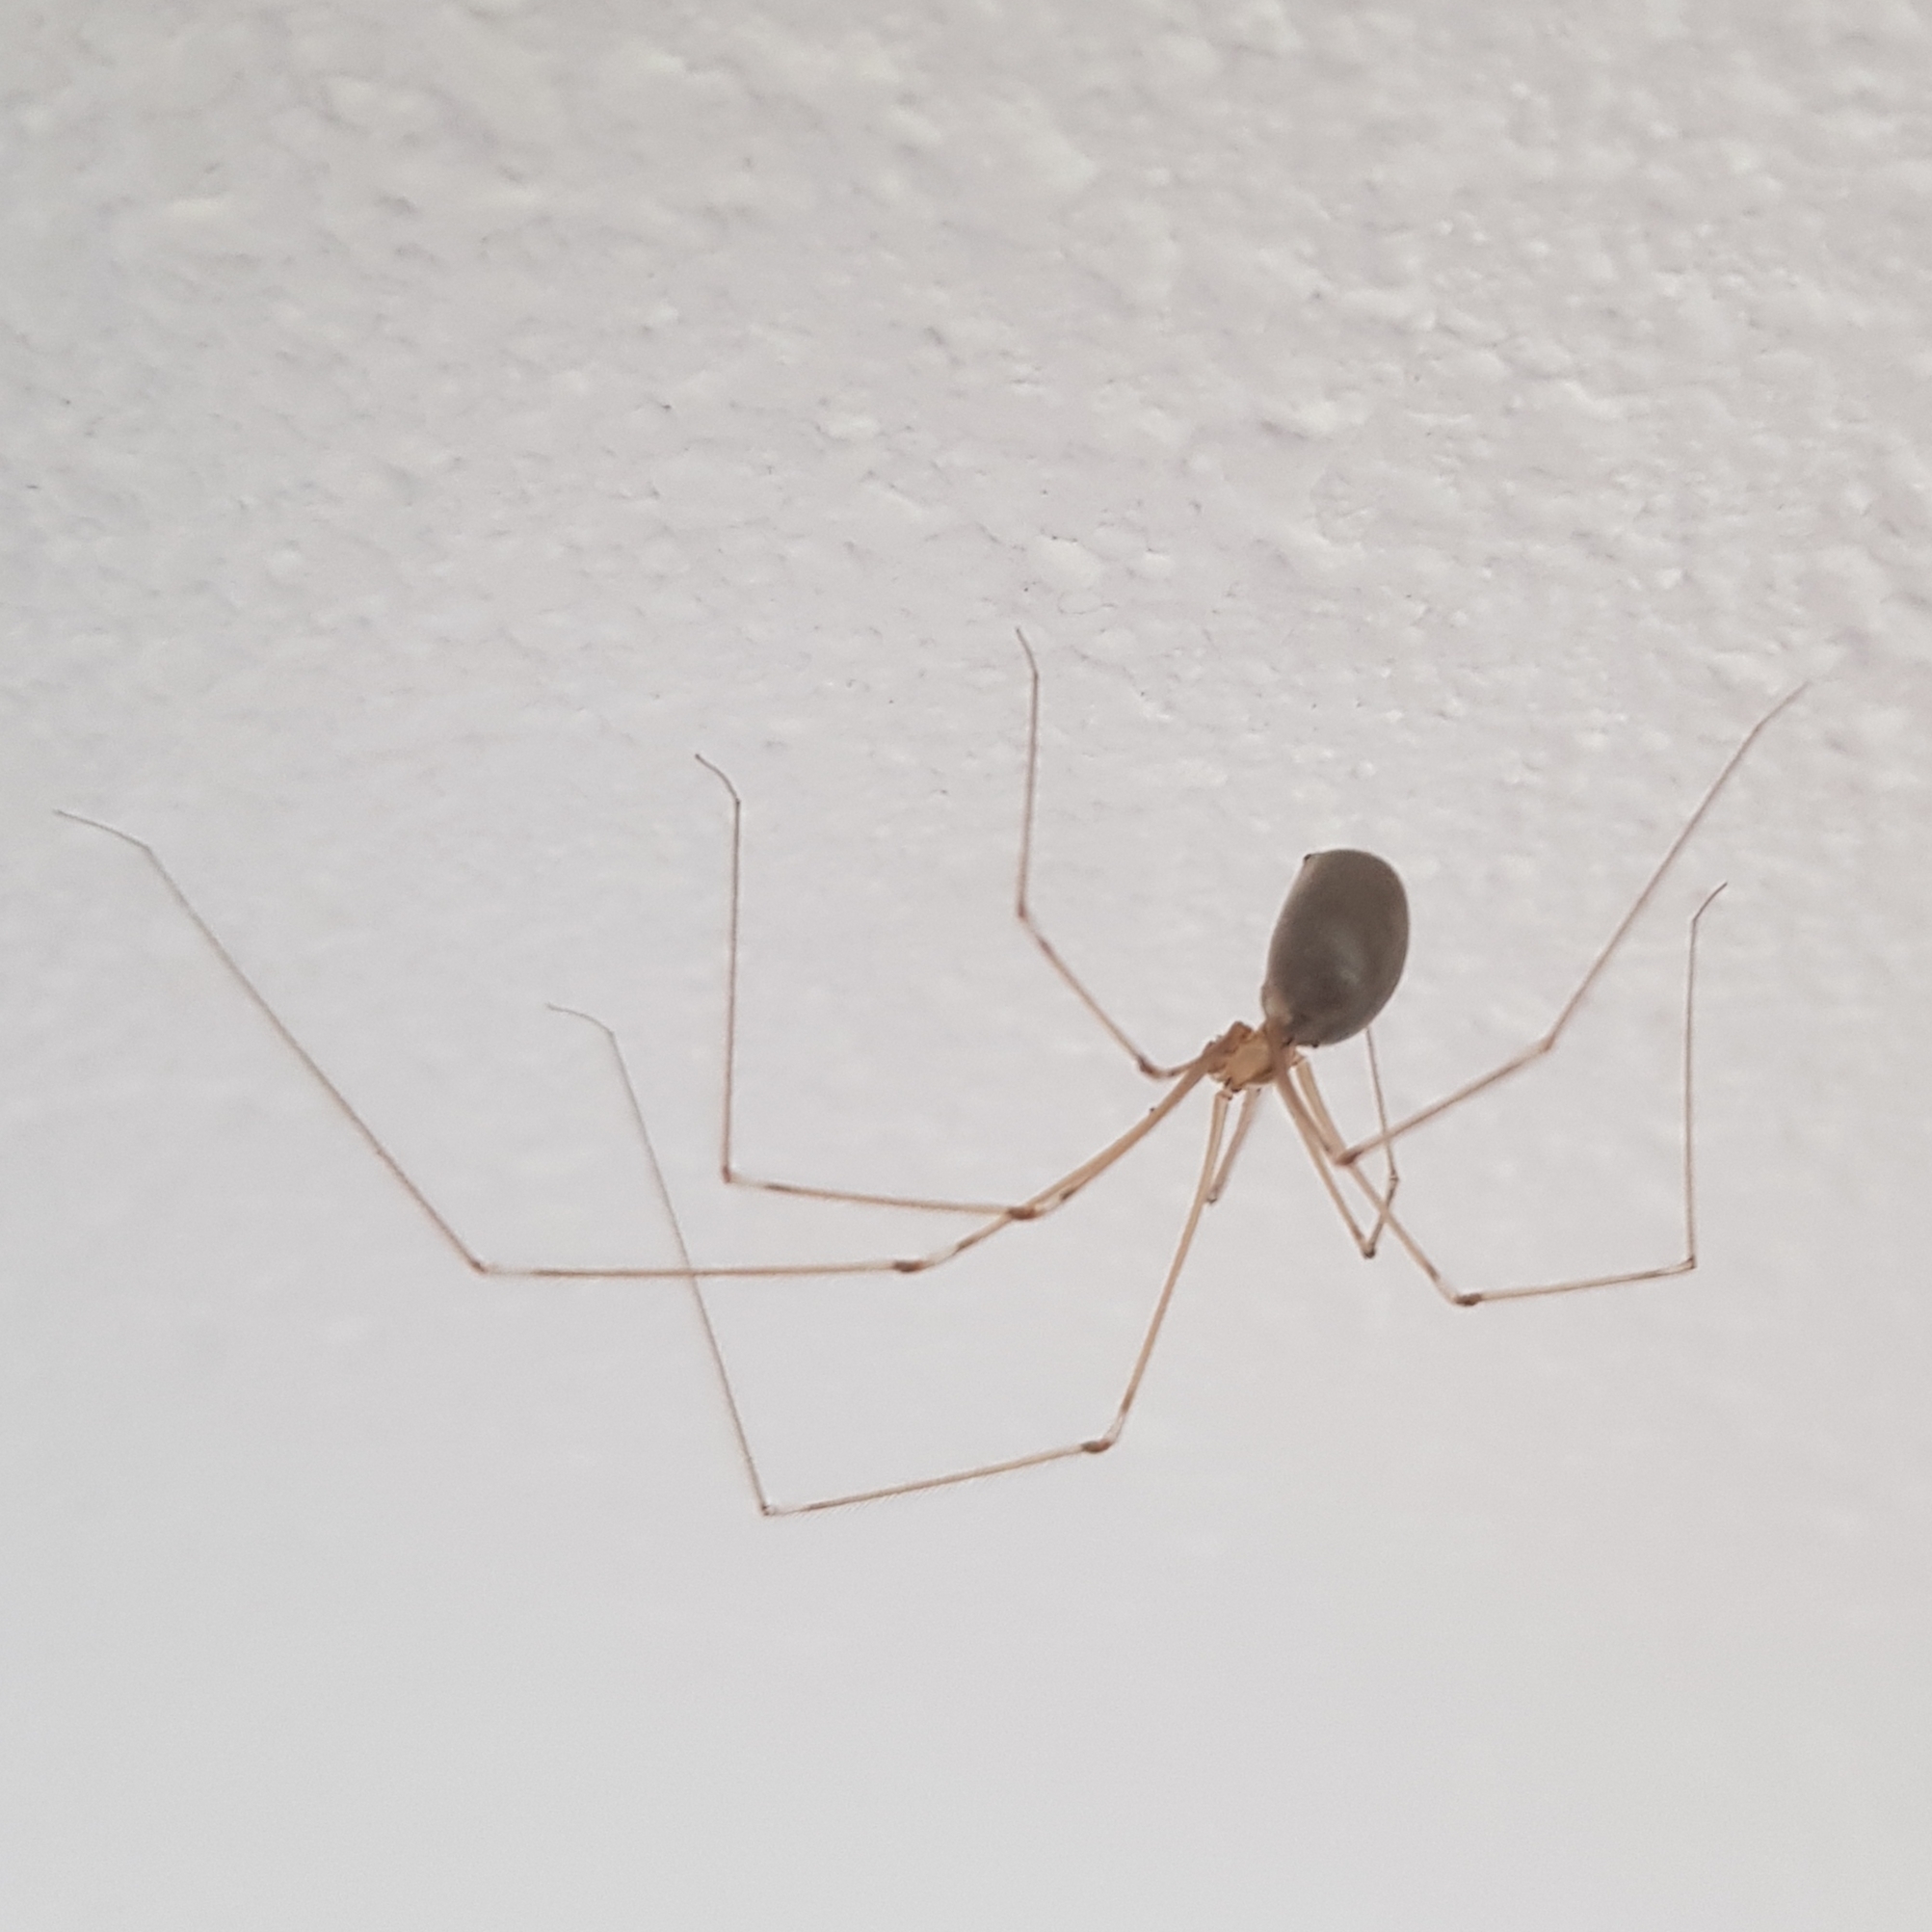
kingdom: Animalia
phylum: Arthropoda
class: Arachnida
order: Araneae
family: Pholcidae
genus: Pholcus
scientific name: Pholcus phalangioides
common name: Longbodied cellar spider
